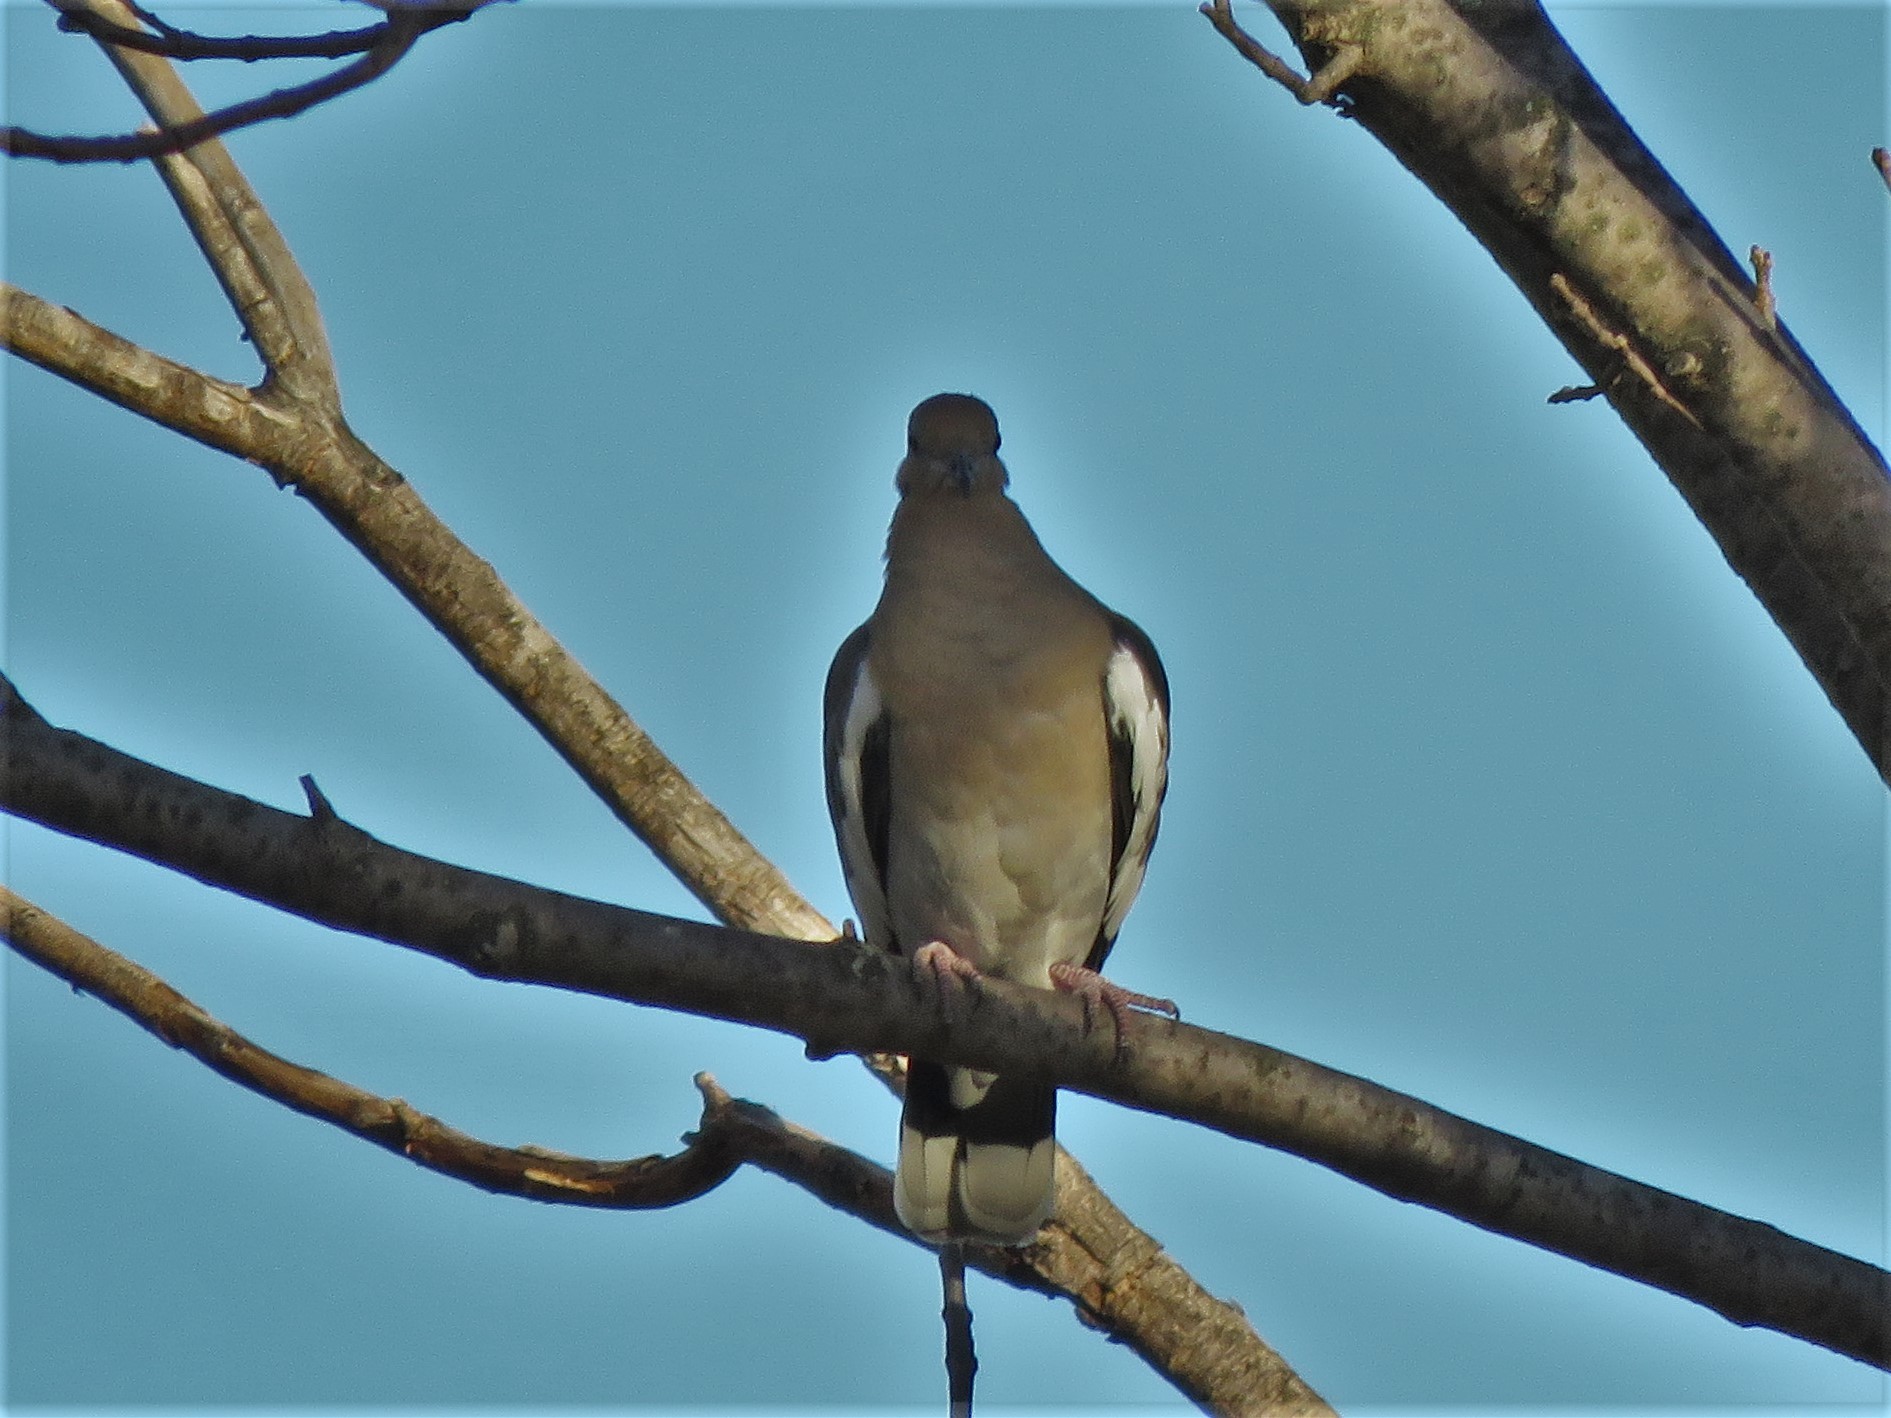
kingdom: Animalia
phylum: Chordata
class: Aves
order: Columbiformes
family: Columbidae
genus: Zenaida
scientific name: Zenaida asiatica
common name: White-winged dove
